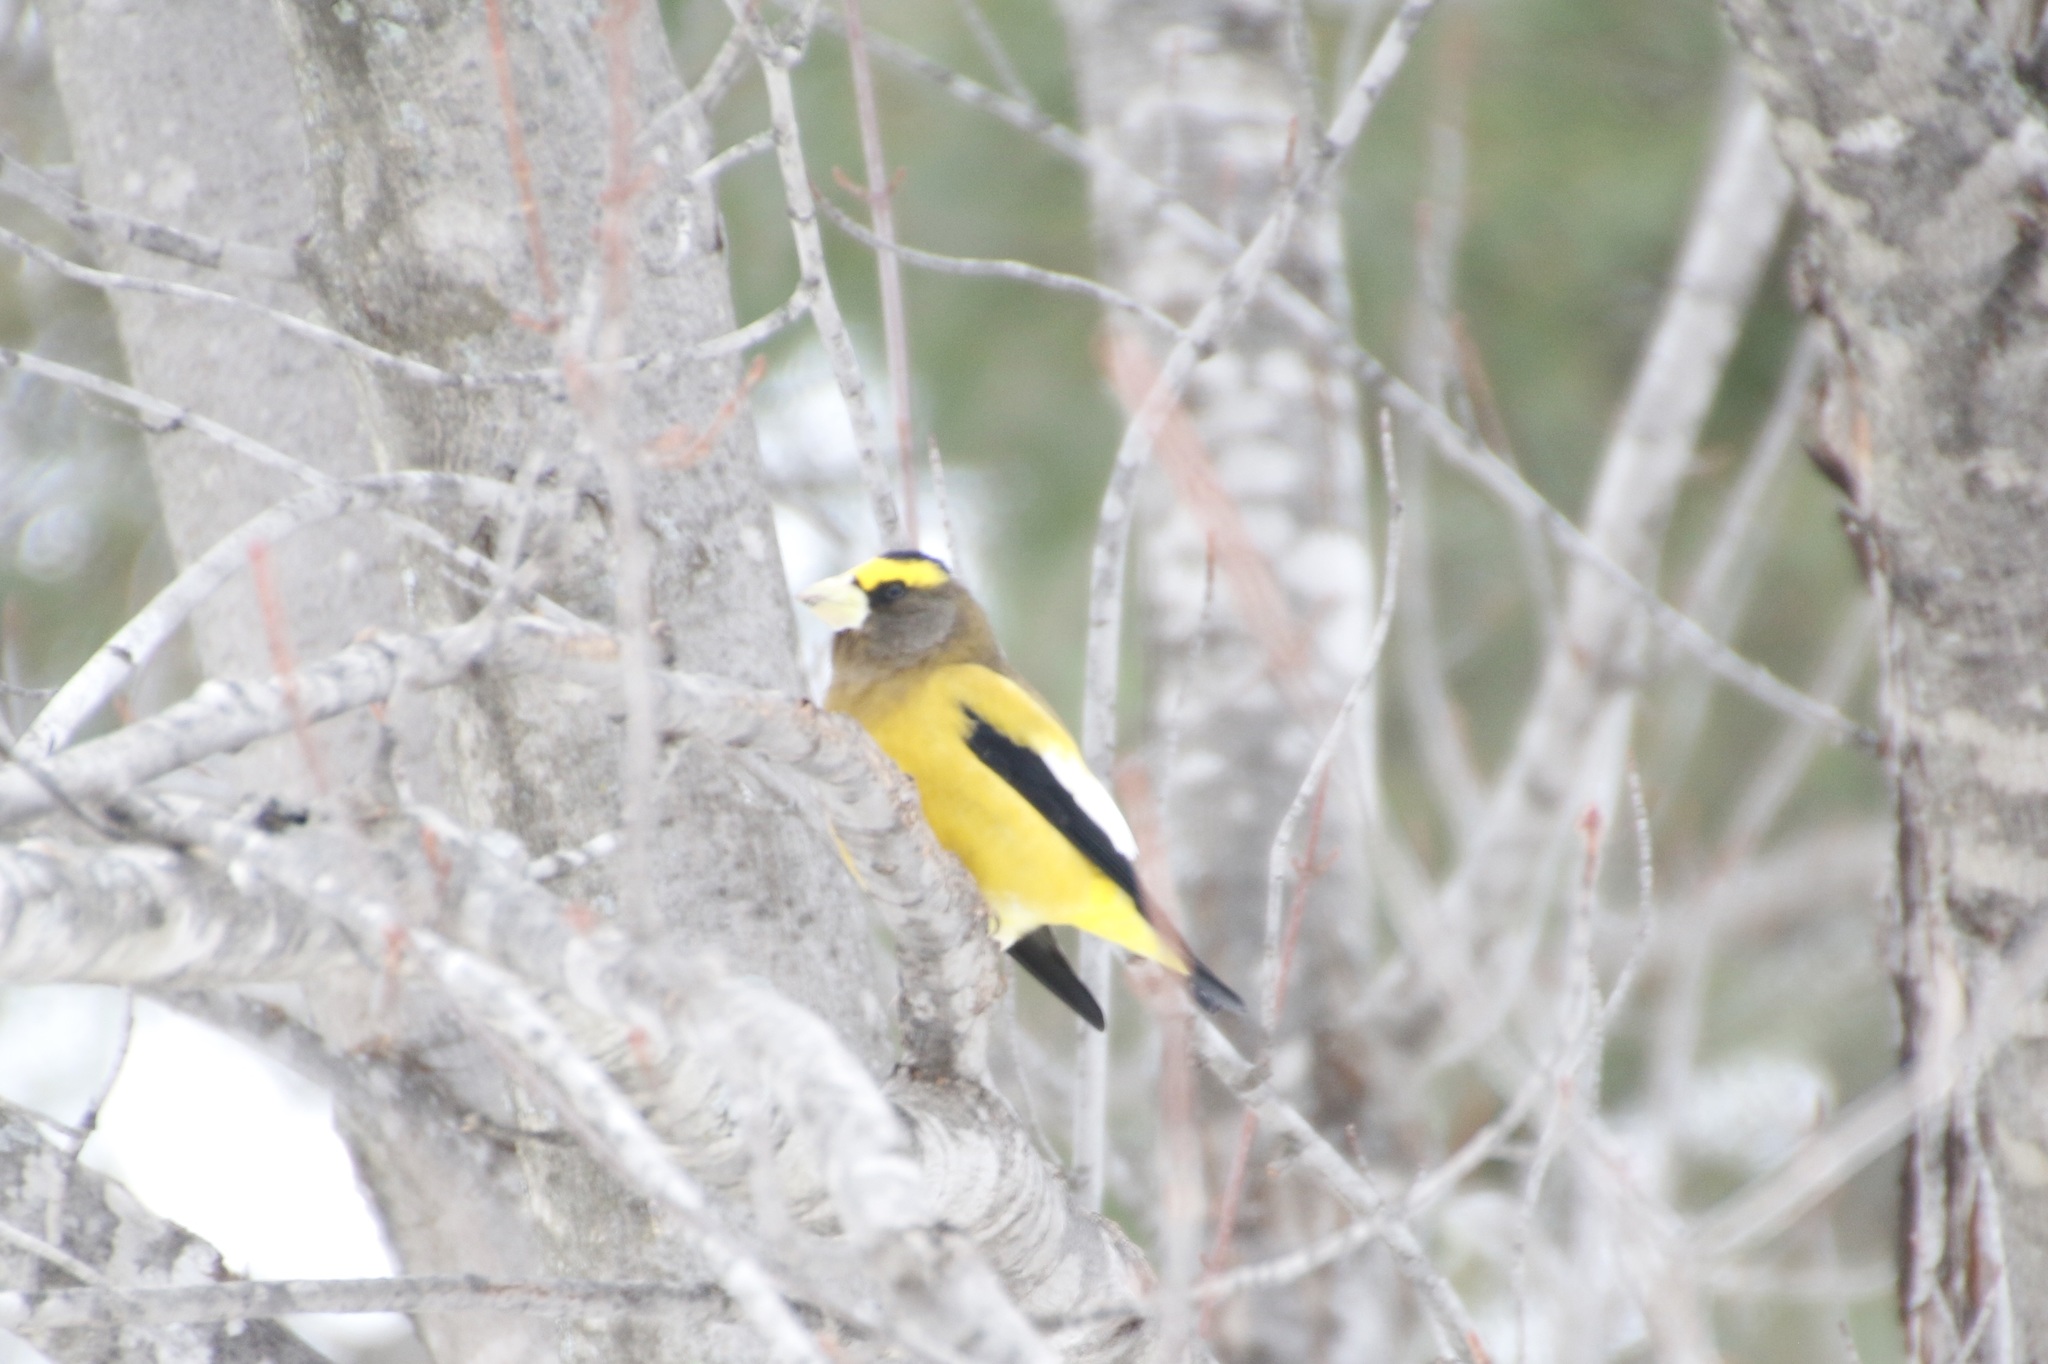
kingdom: Animalia
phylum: Chordata
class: Aves
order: Passeriformes
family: Fringillidae
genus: Hesperiphona
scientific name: Hesperiphona vespertina
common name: Evening grosbeak
